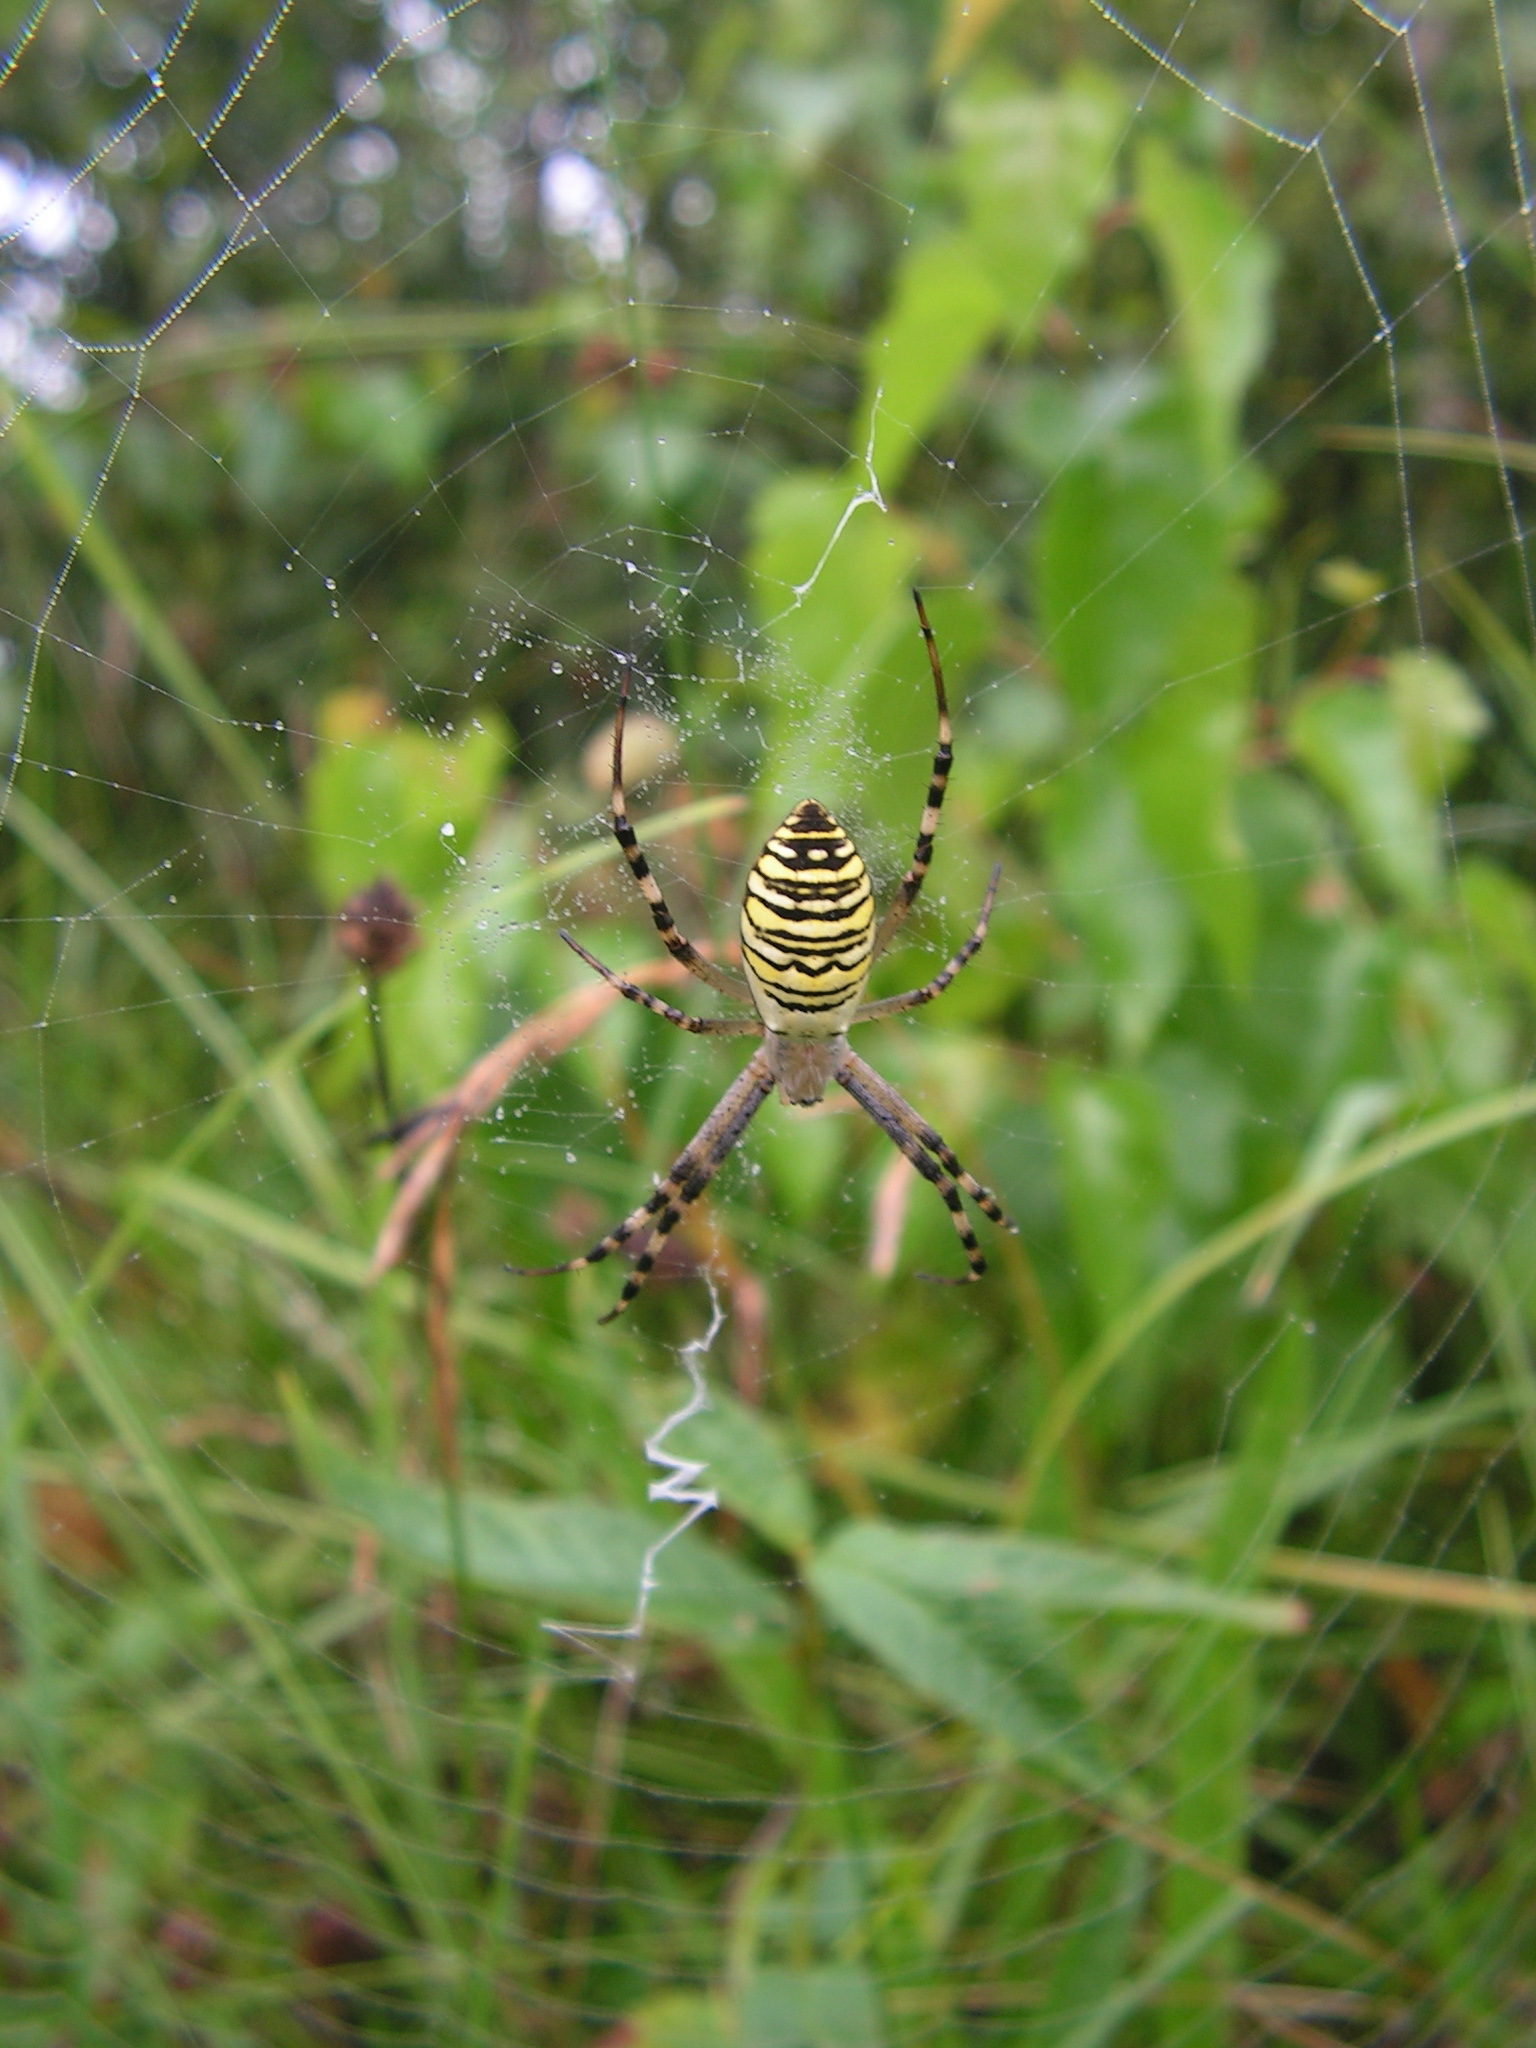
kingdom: Animalia
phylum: Arthropoda
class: Arachnida
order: Araneae
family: Araneidae
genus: Argiope
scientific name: Argiope bruennichi
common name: Wasp spider
